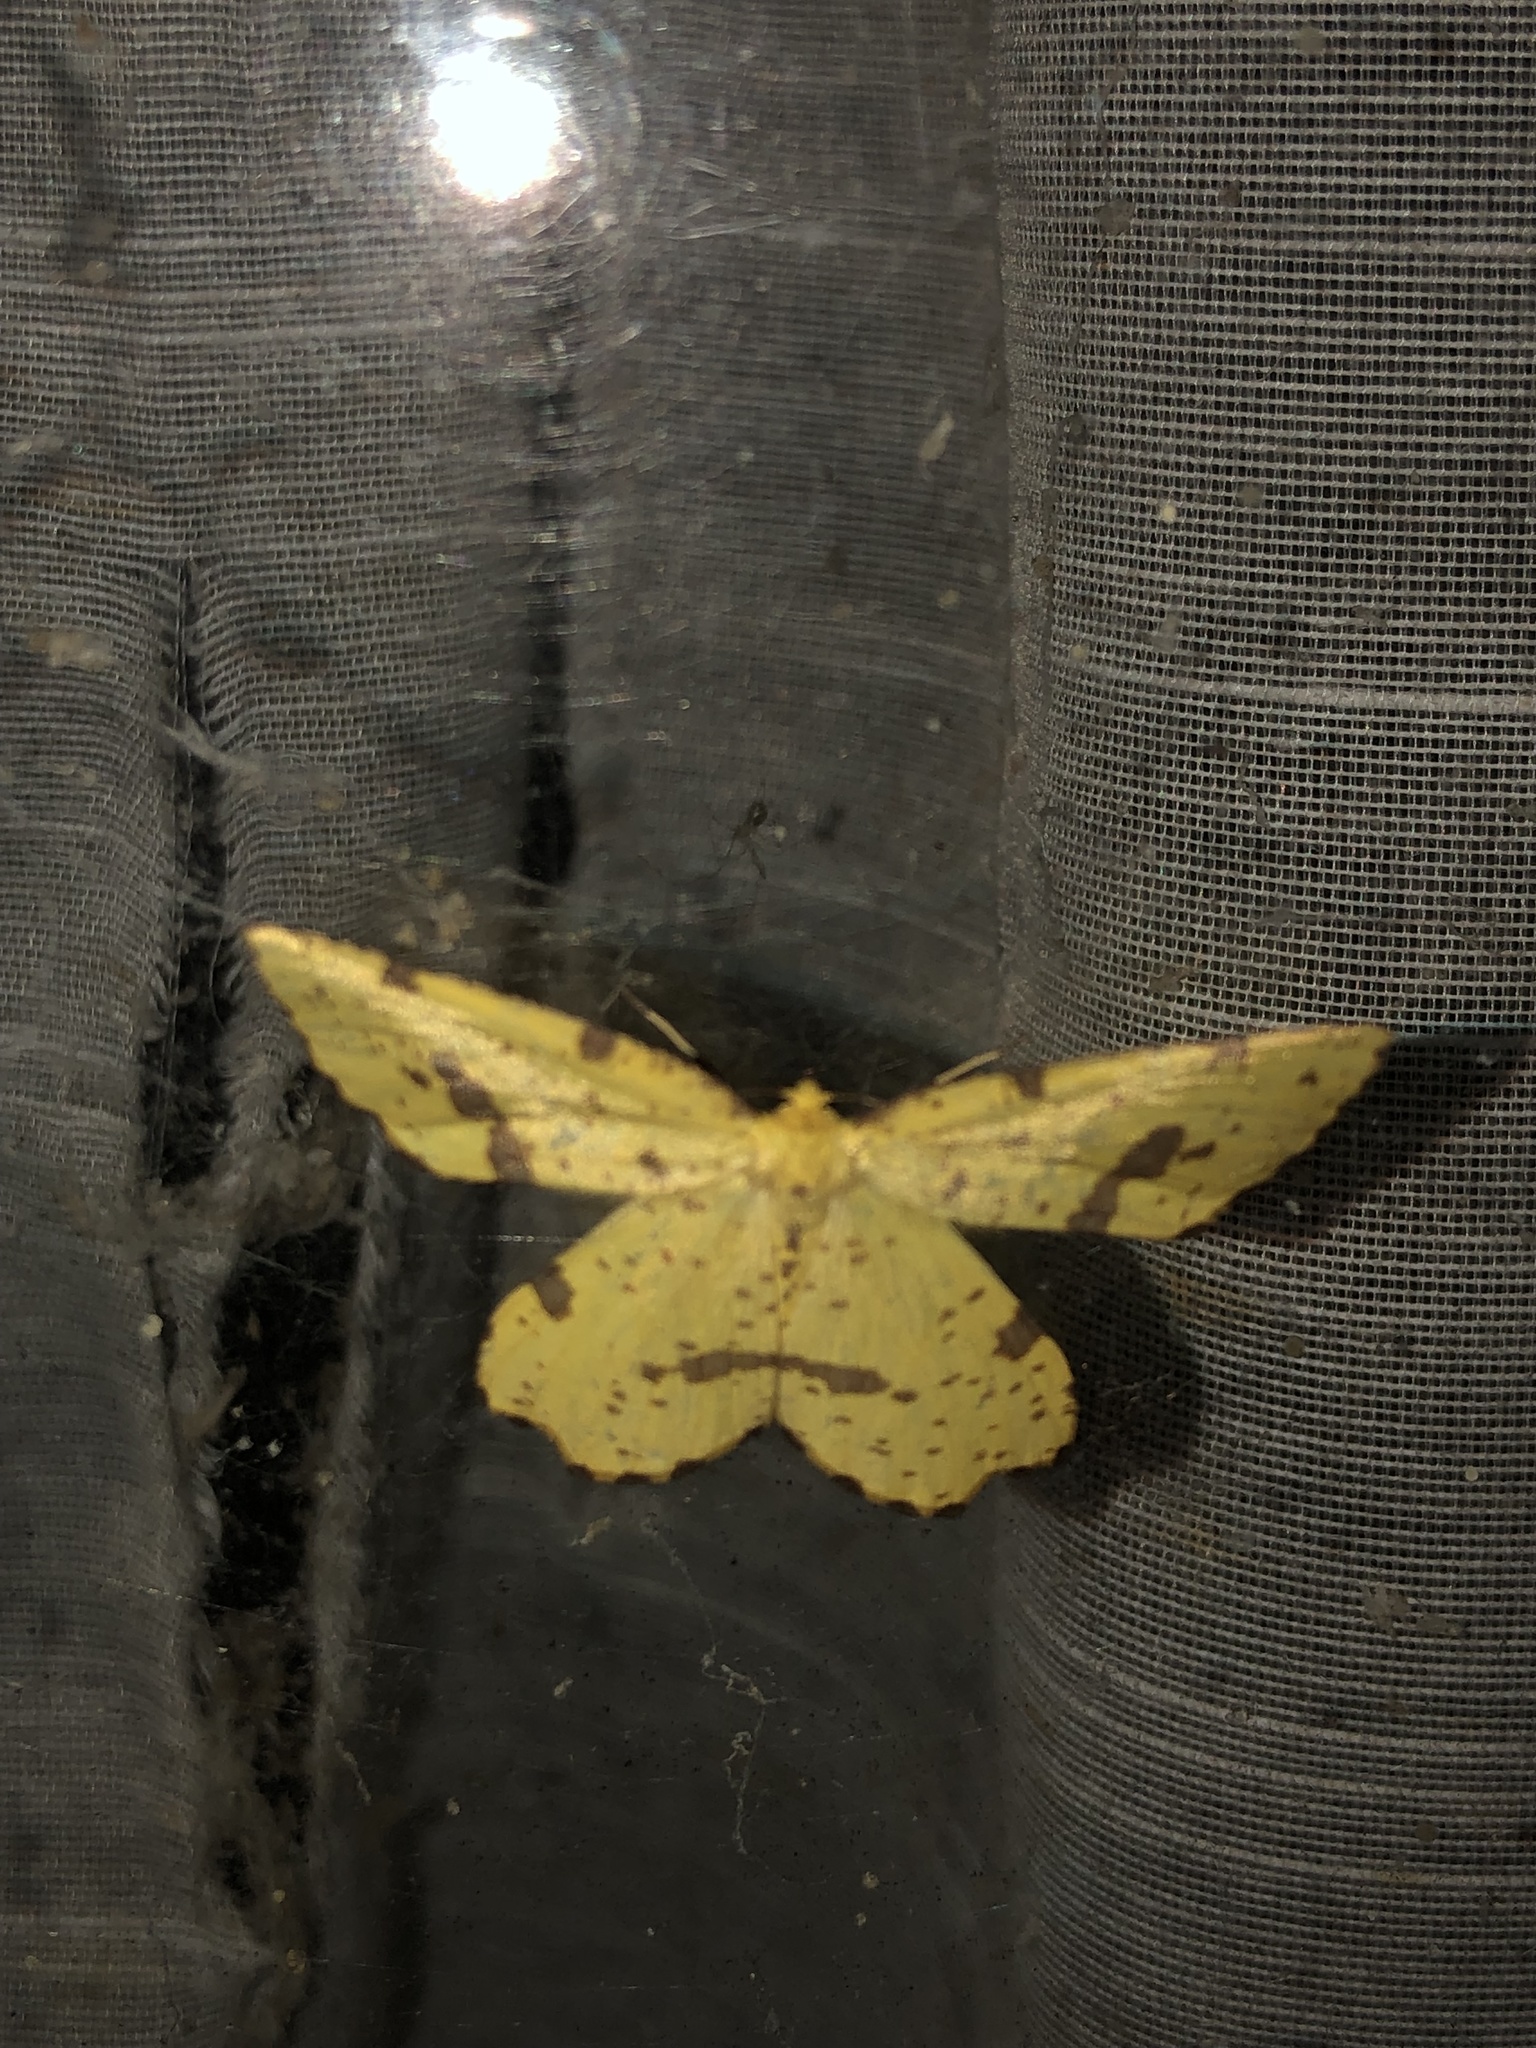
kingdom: Animalia
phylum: Arthropoda
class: Insecta
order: Lepidoptera
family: Geometridae
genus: Xanthotype
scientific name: Xanthotype
